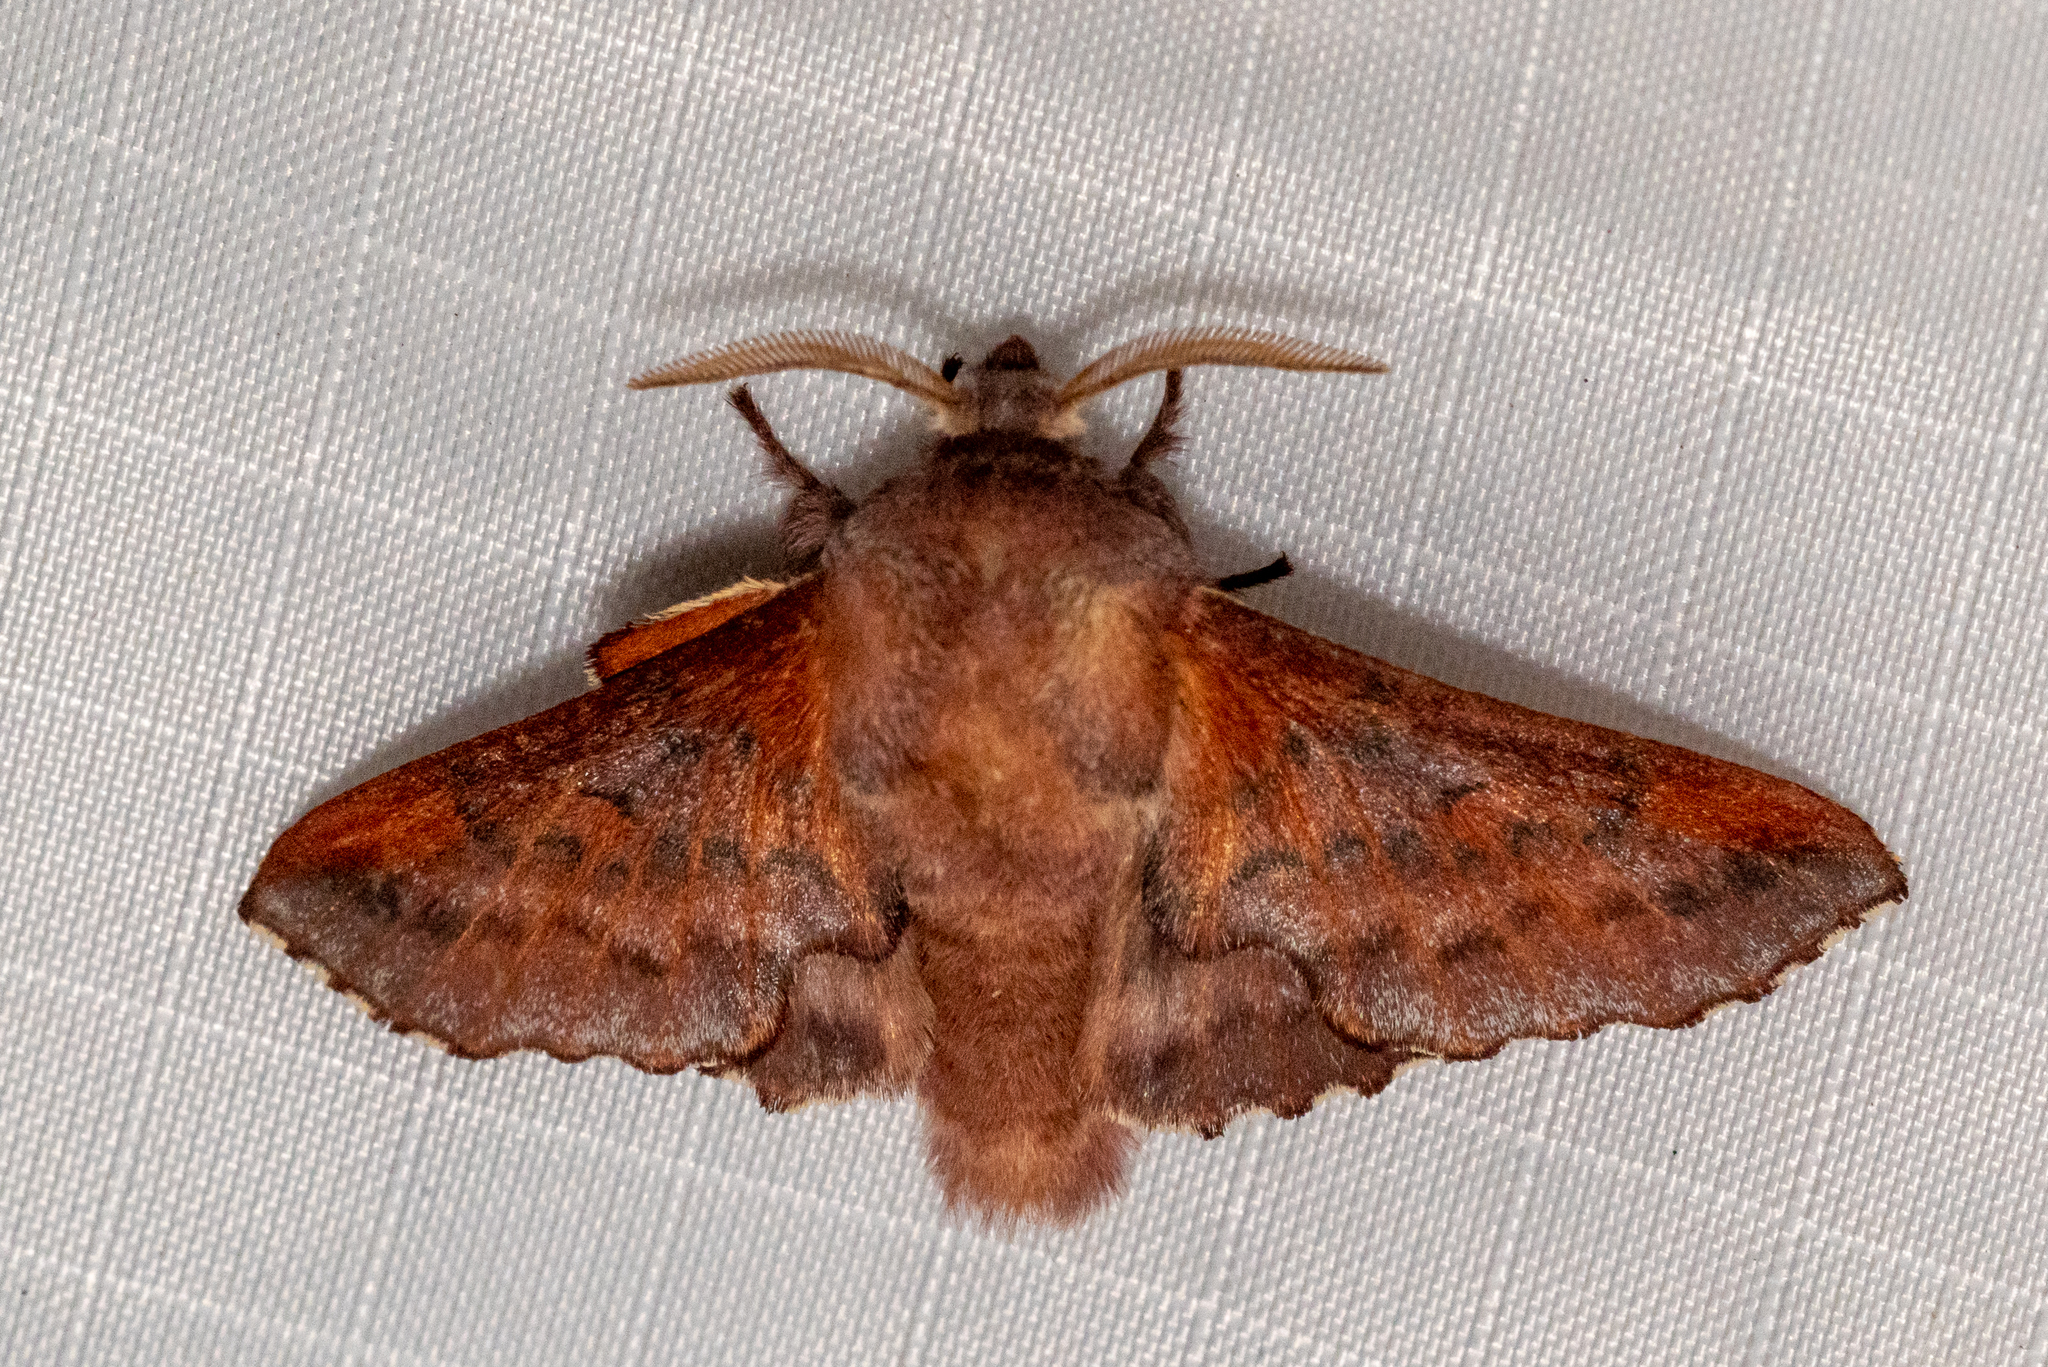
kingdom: Animalia
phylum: Arthropoda
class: Insecta
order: Lepidoptera
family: Lasiocampidae
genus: Phyllodesma
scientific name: Phyllodesma americana
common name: American lappet moth
